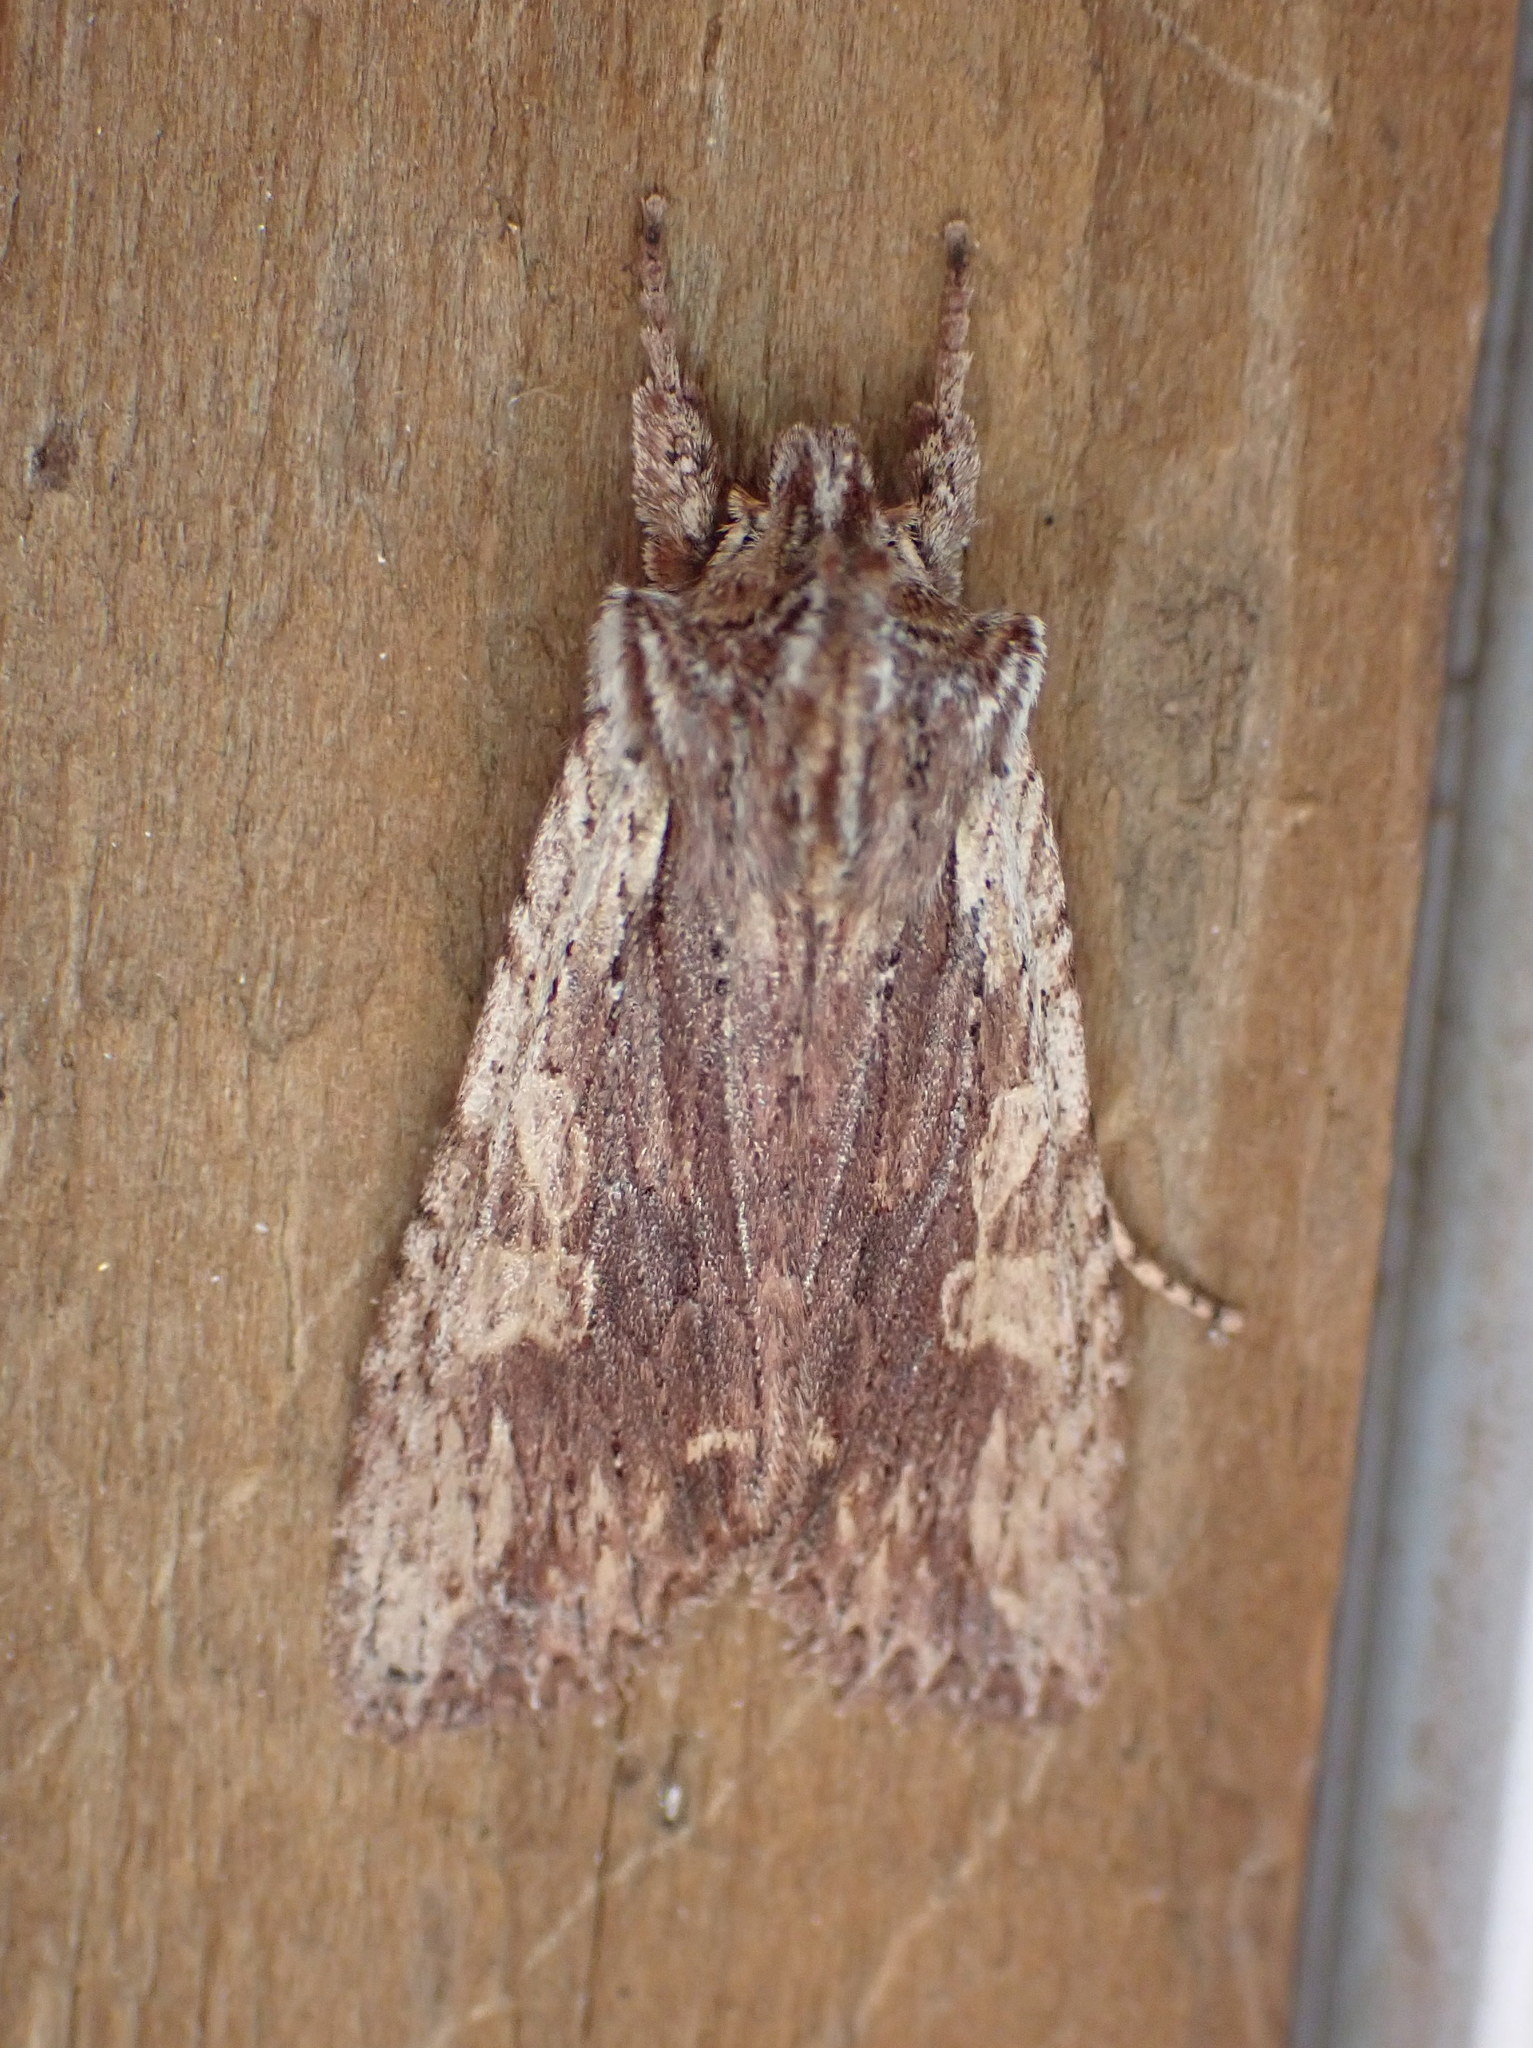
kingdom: Animalia
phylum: Arthropoda
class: Insecta
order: Lepidoptera
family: Noctuidae
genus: Lithophane
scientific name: Lithophane petulca
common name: Wanton pinion
